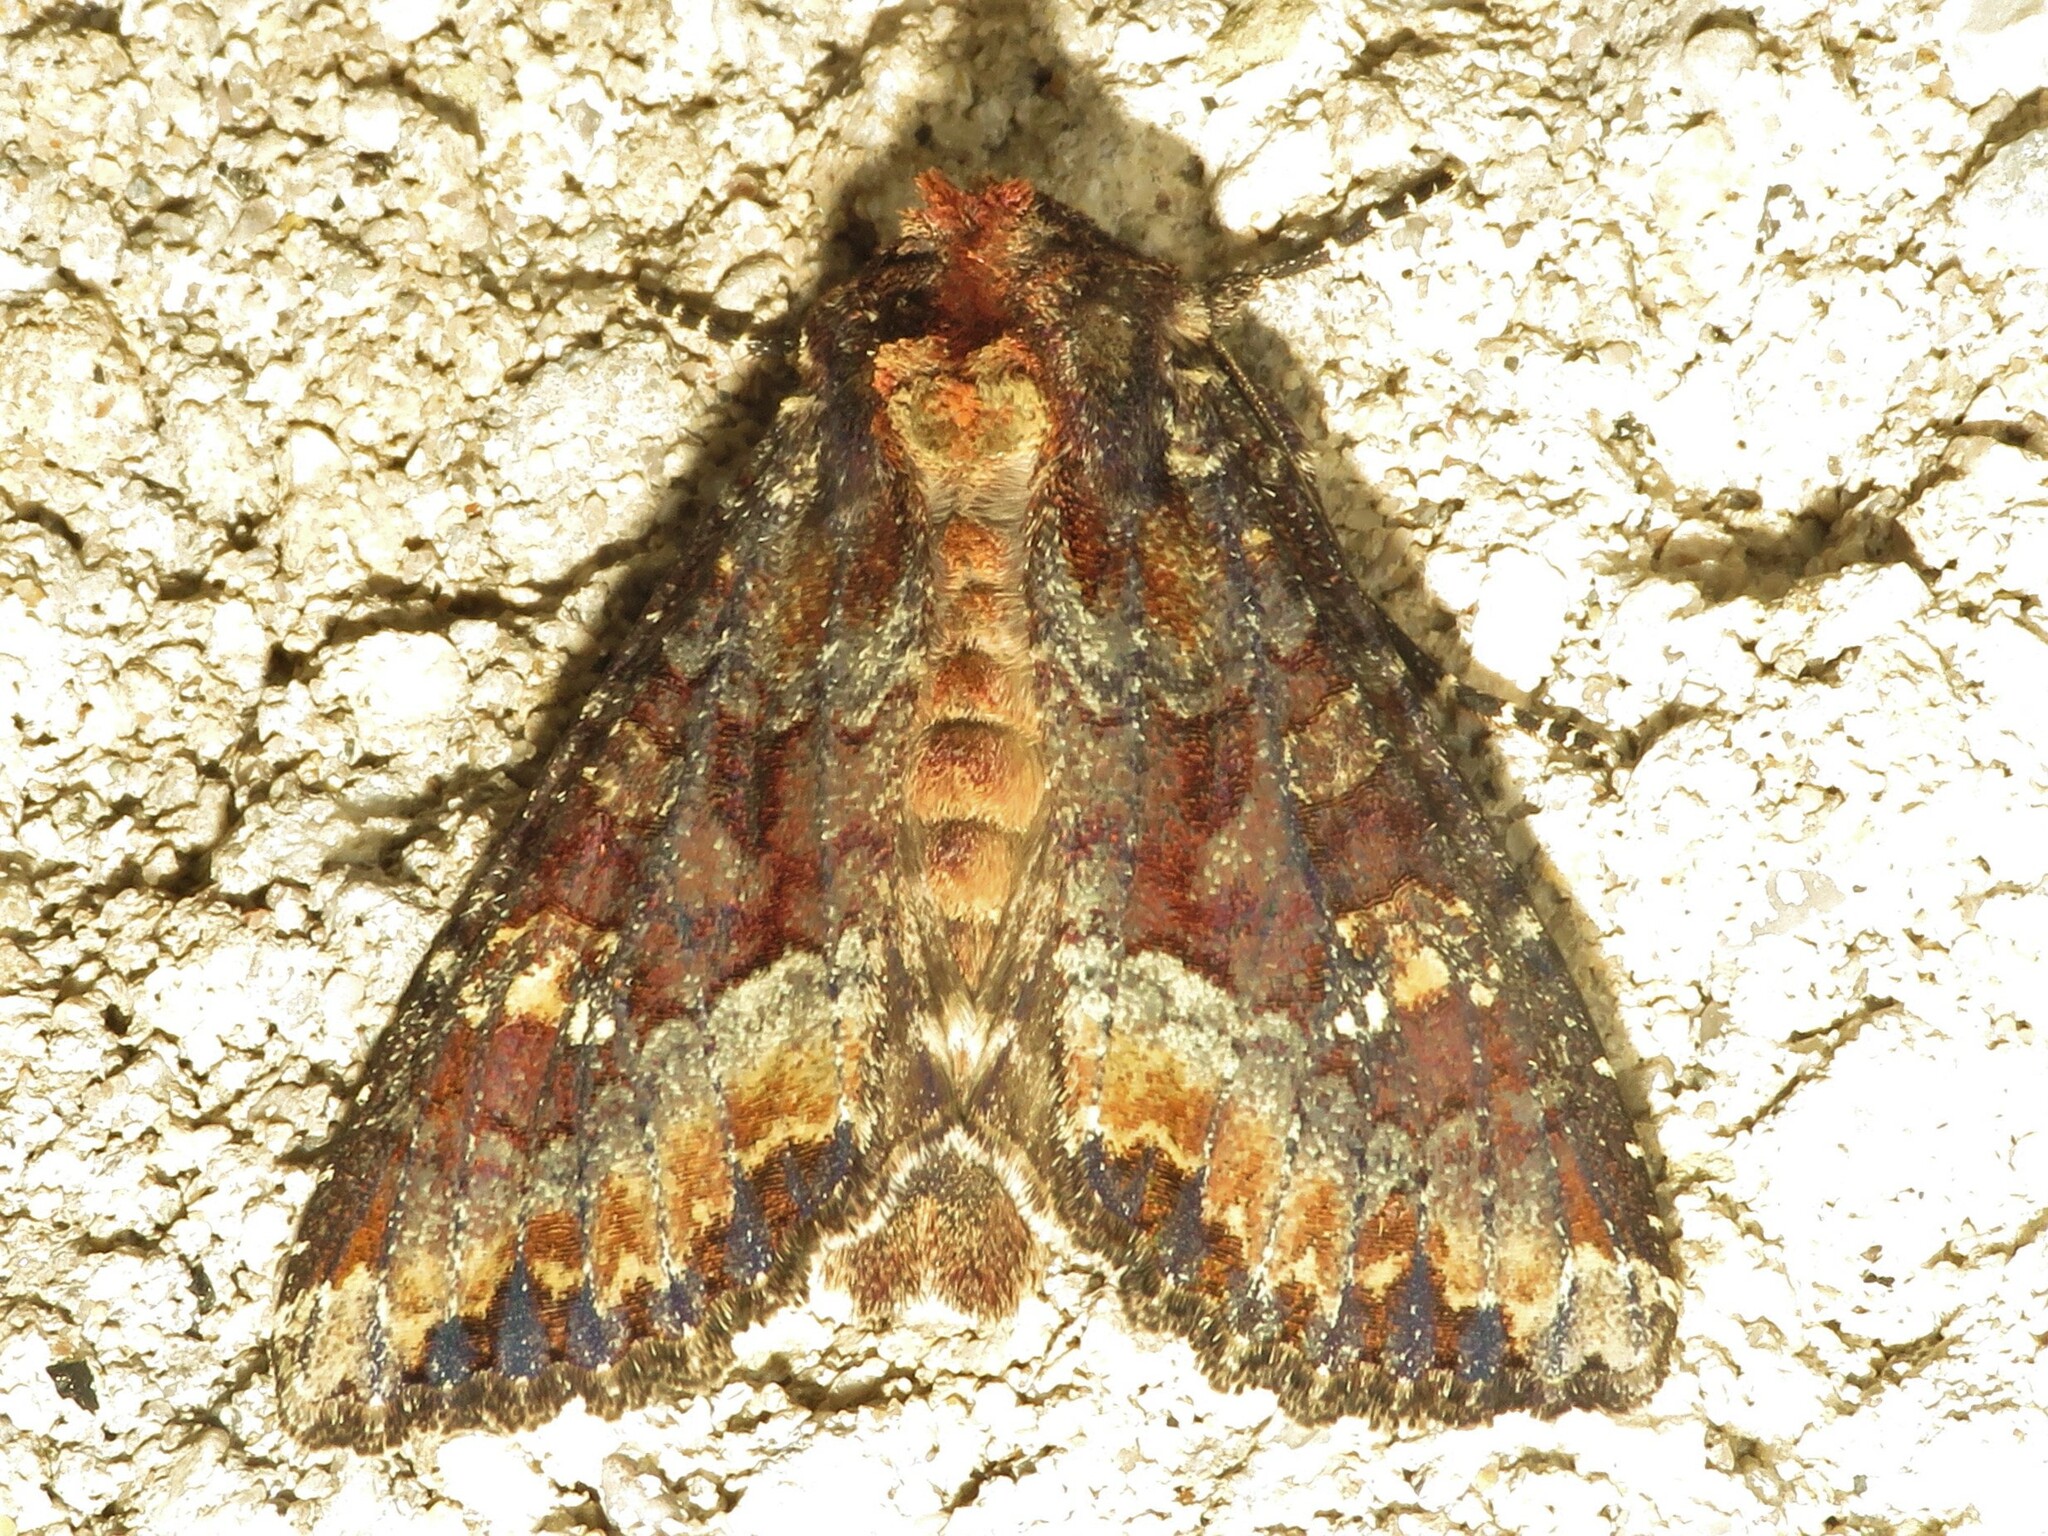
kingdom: Animalia
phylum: Arthropoda
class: Insecta
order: Lepidoptera
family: Noctuidae
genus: Apamea
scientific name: Apamea amputatrix
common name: Yellow-headed cutworm moth
